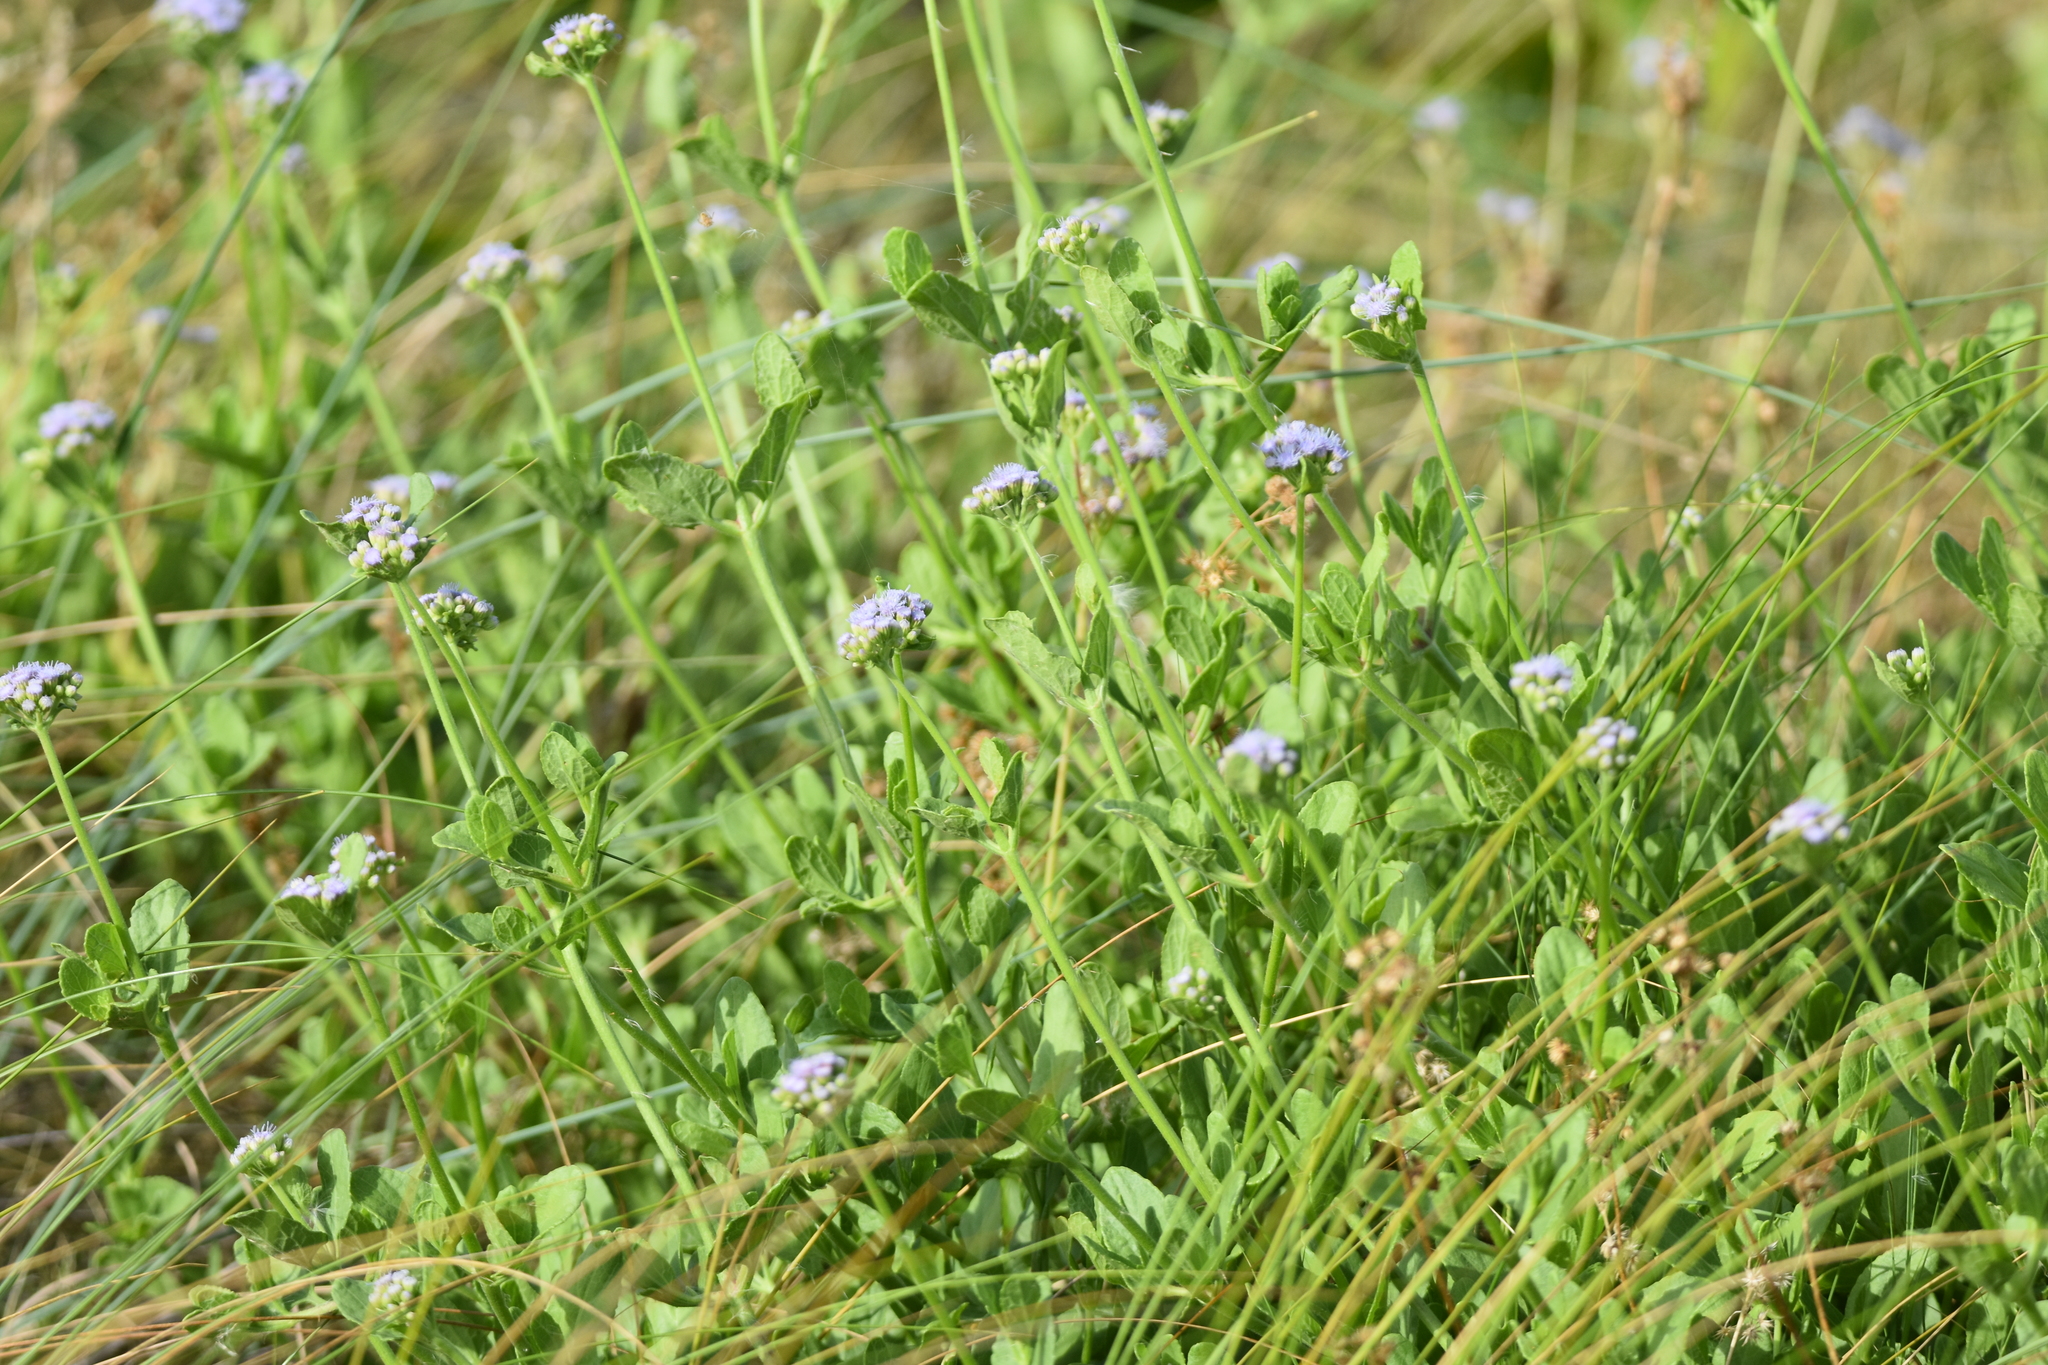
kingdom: Plantae
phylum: Tracheophyta
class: Magnoliopsida
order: Asterales
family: Asteraceae
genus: Conoclinium
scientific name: Conoclinium betonicifolium
